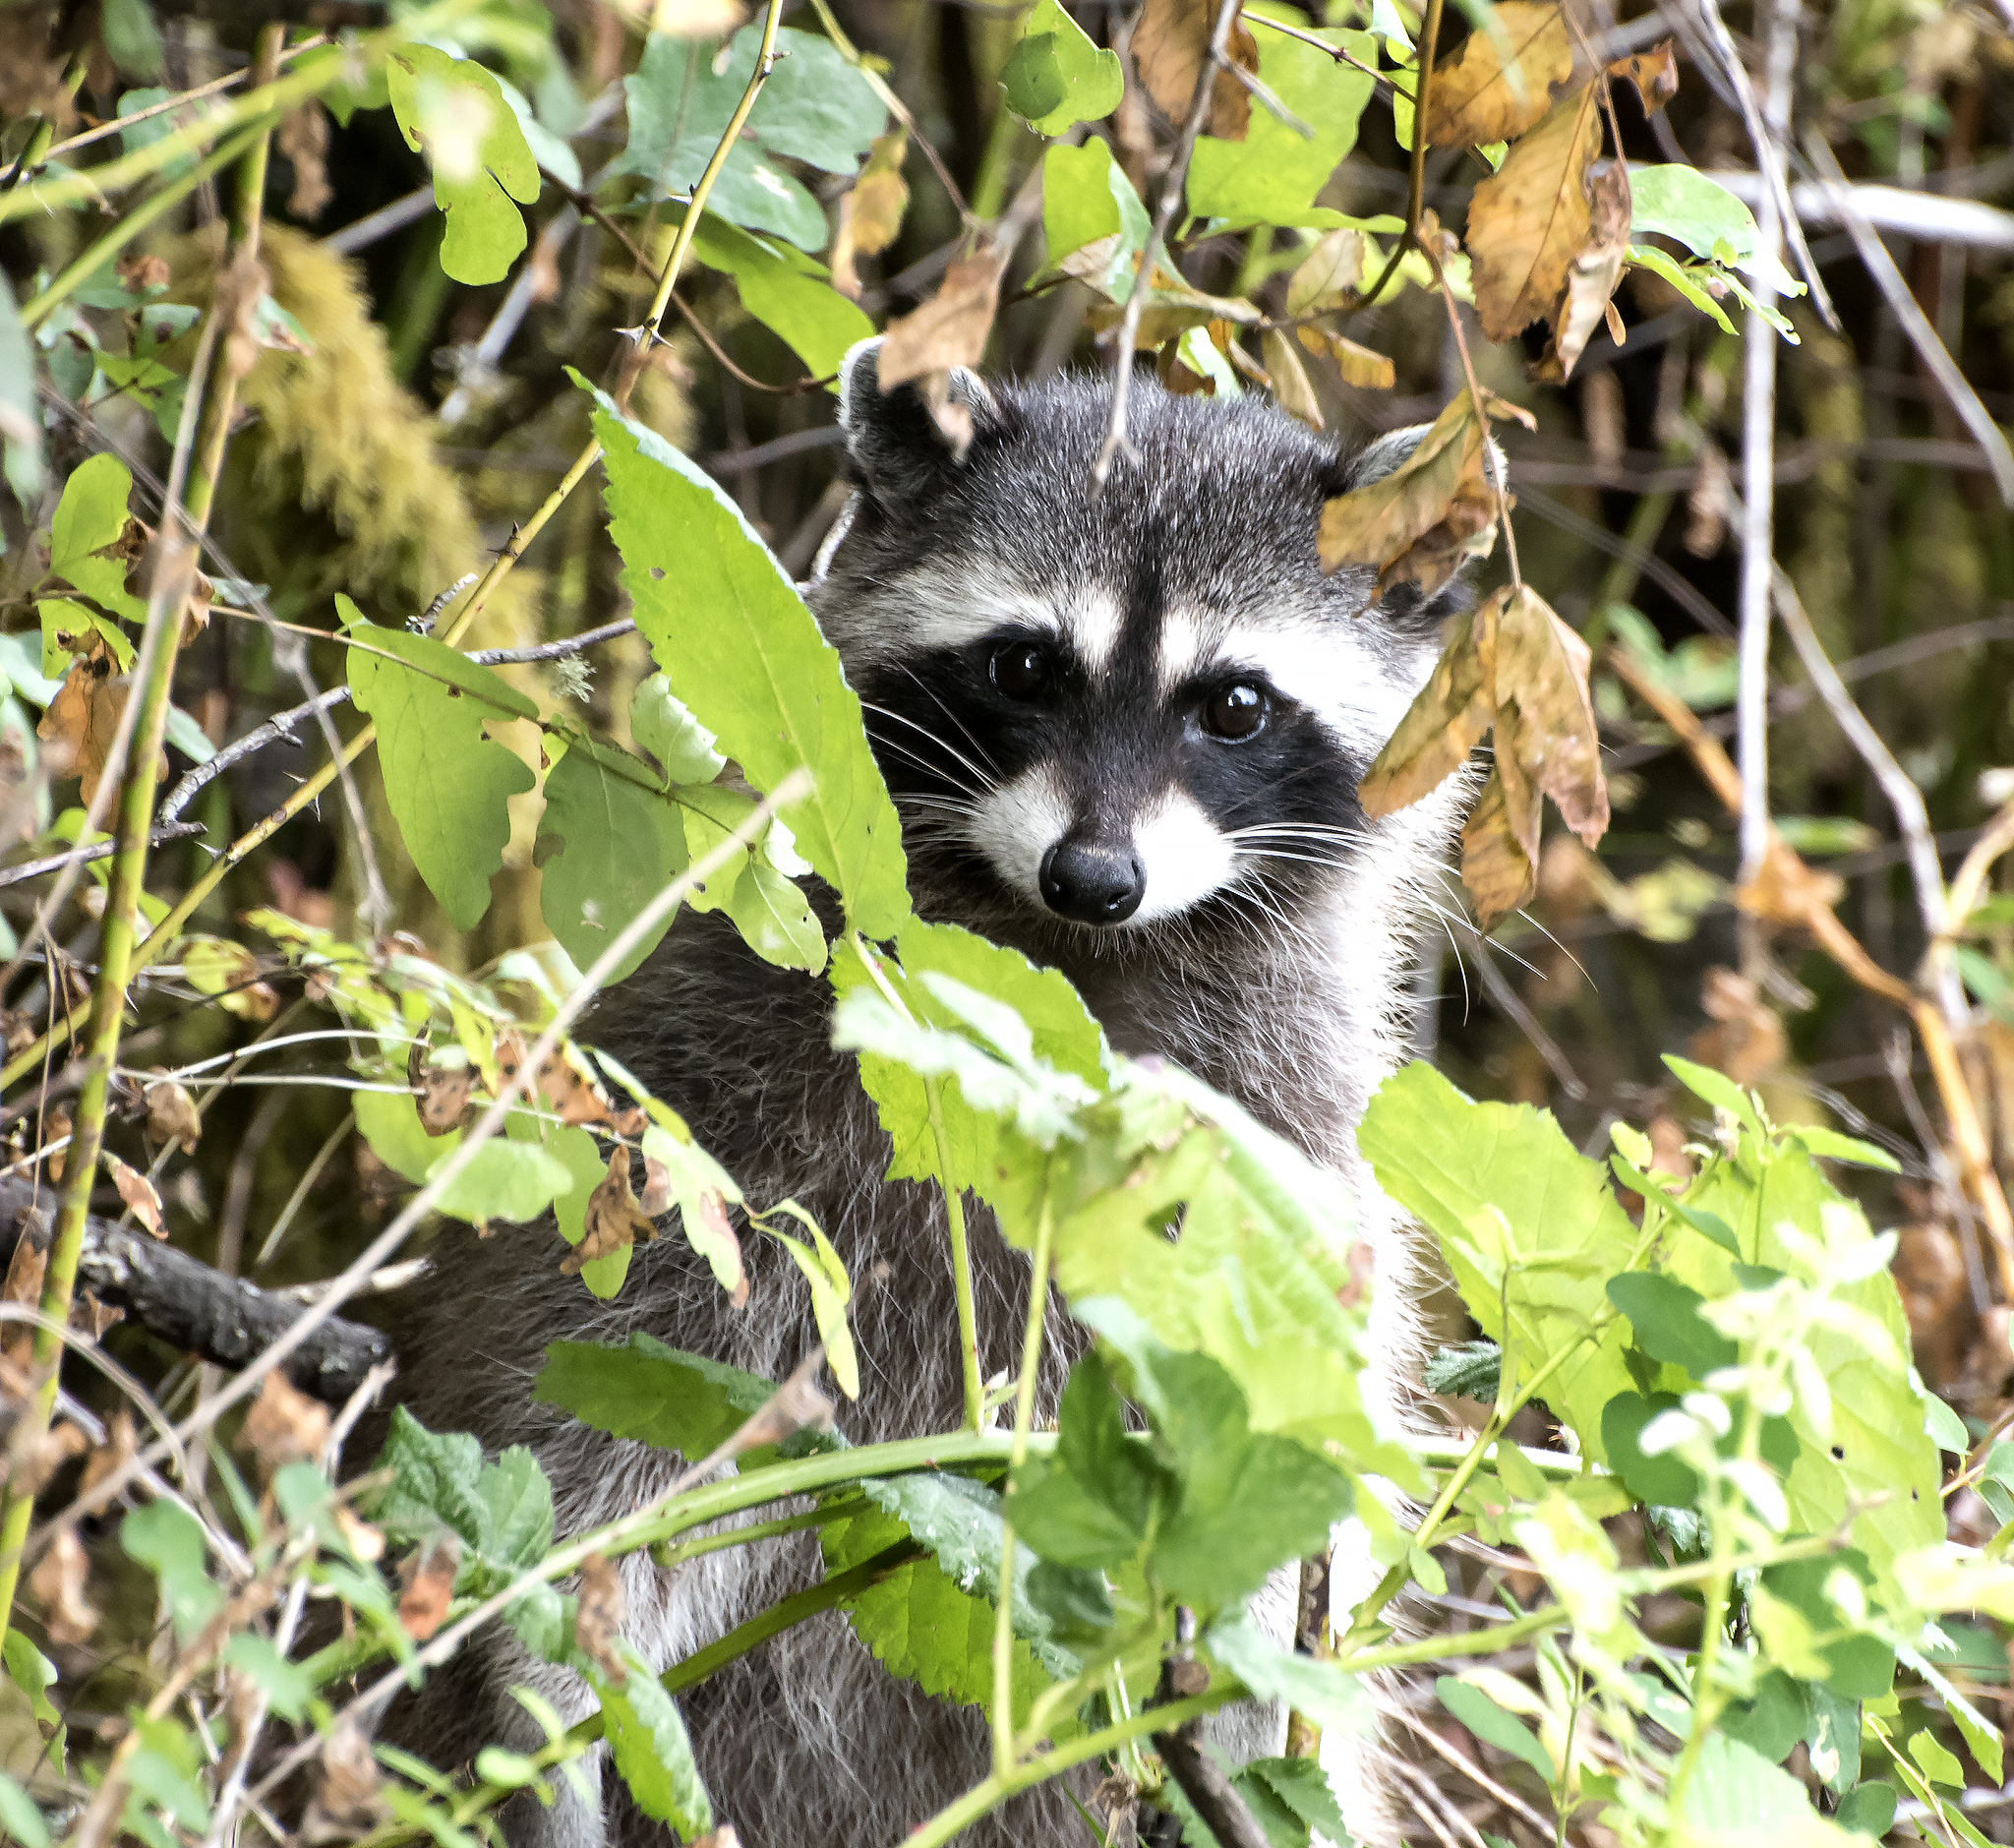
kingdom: Animalia
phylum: Chordata
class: Mammalia
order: Carnivora
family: Procyonidae
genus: Procyon
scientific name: Procyon lotor
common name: Raccoon
